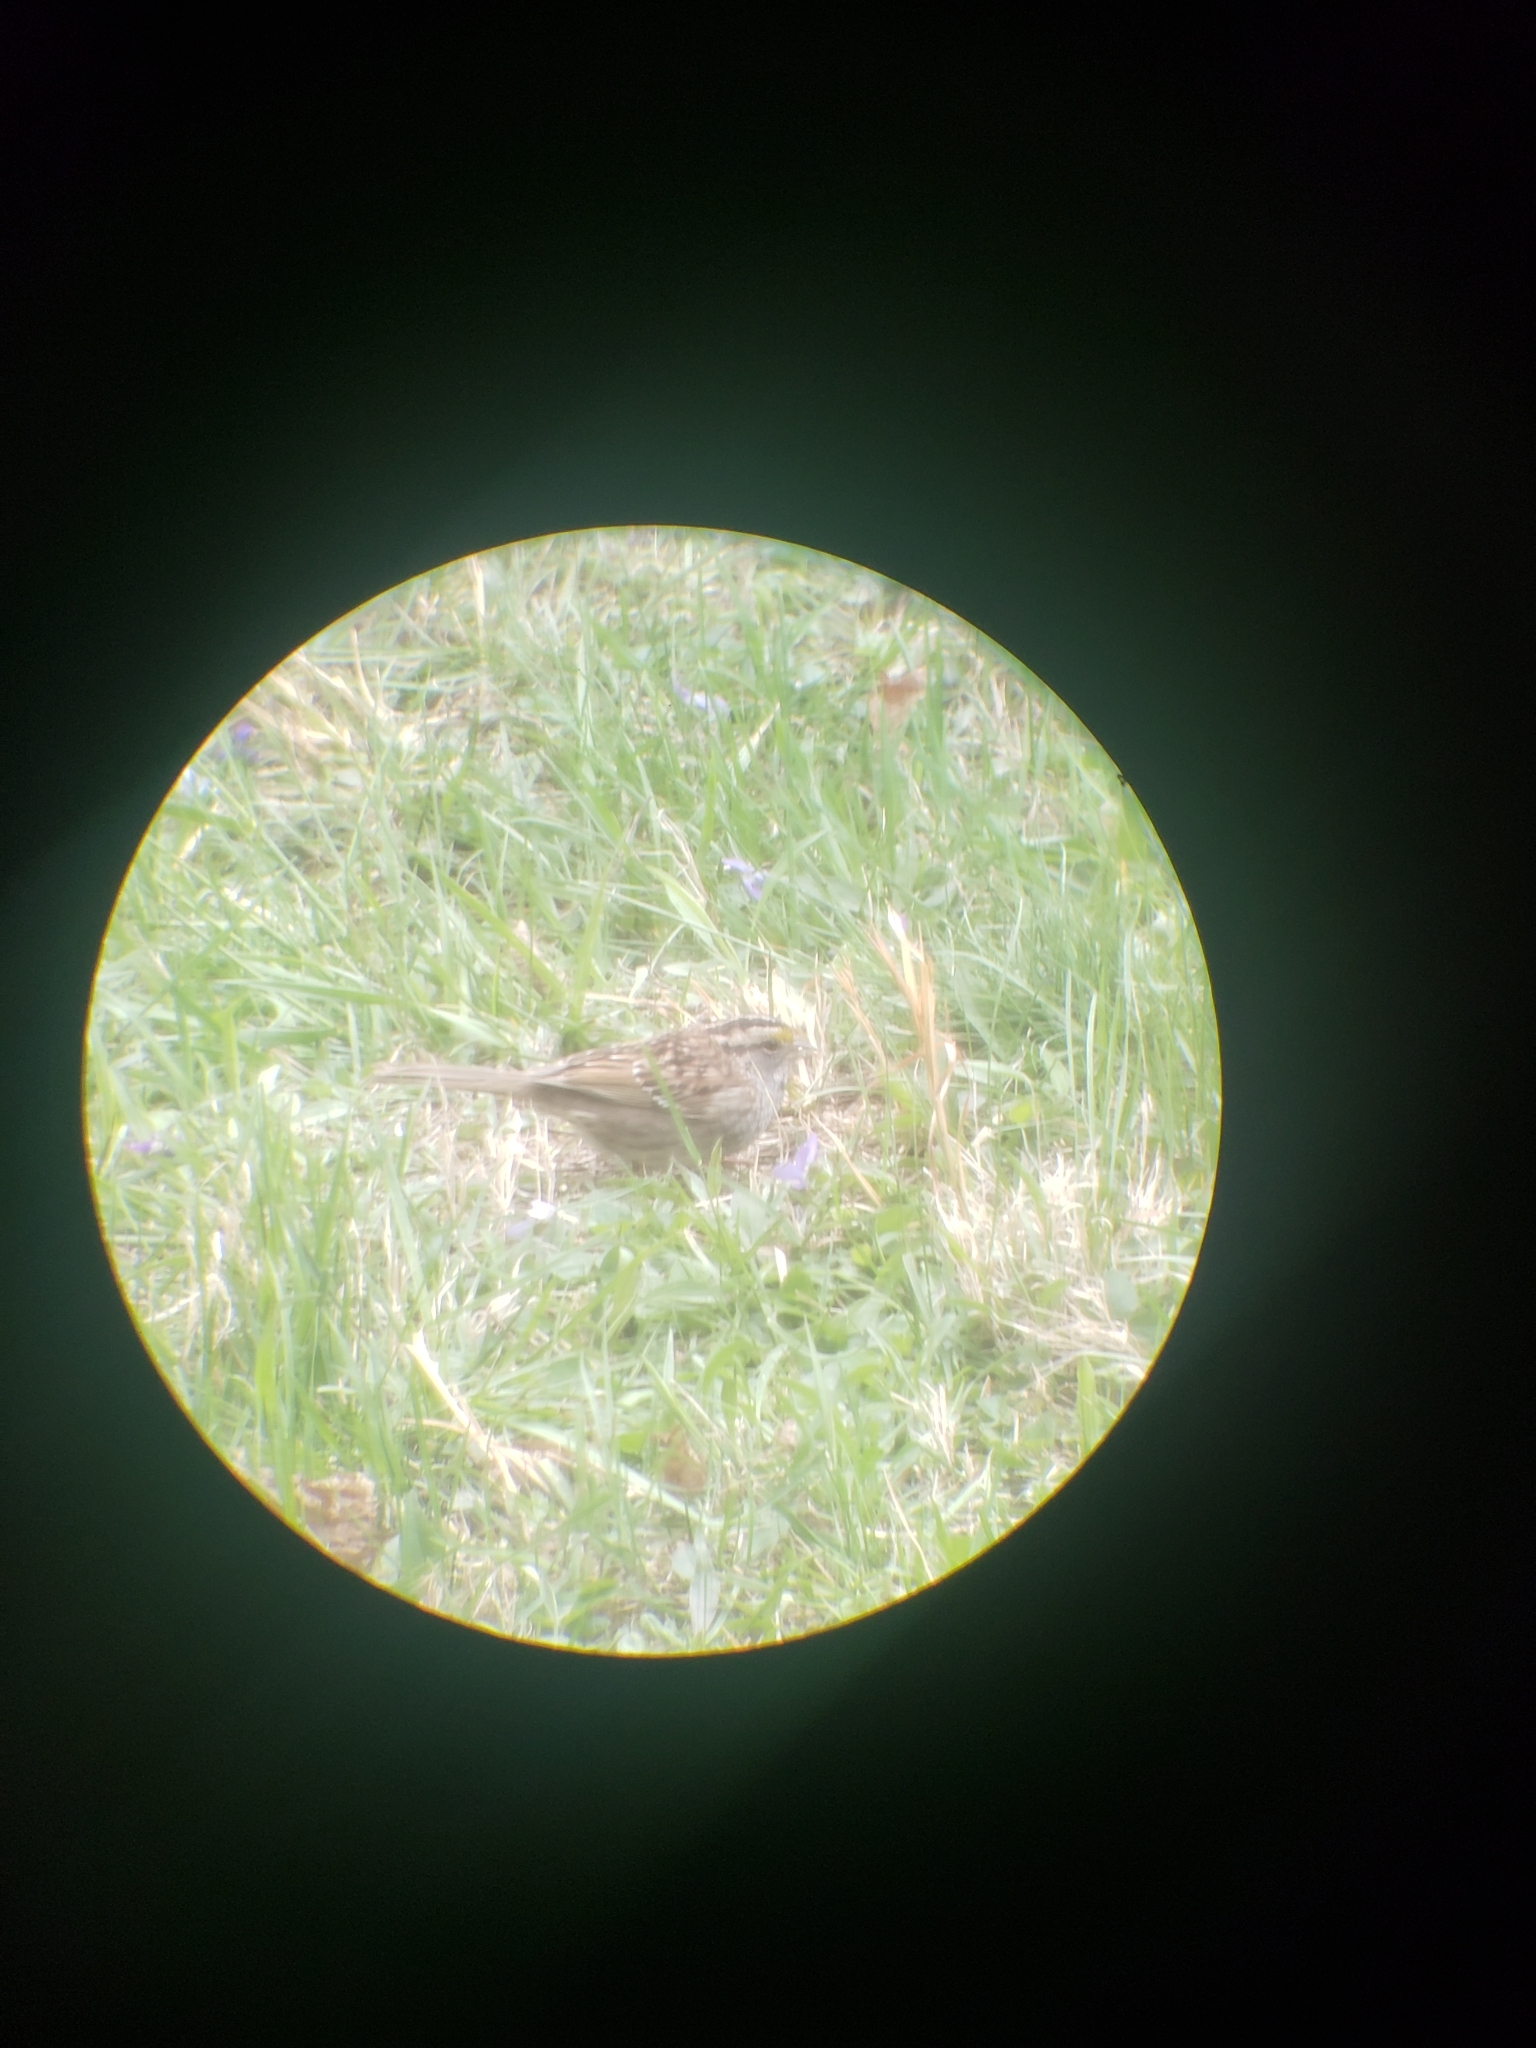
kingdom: Animalia
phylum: Chordata
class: Aves
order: Passeriformes
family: Passerellidae
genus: Zonotrichia
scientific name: Zonotrichia albicollis
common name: White-throated sparrow
